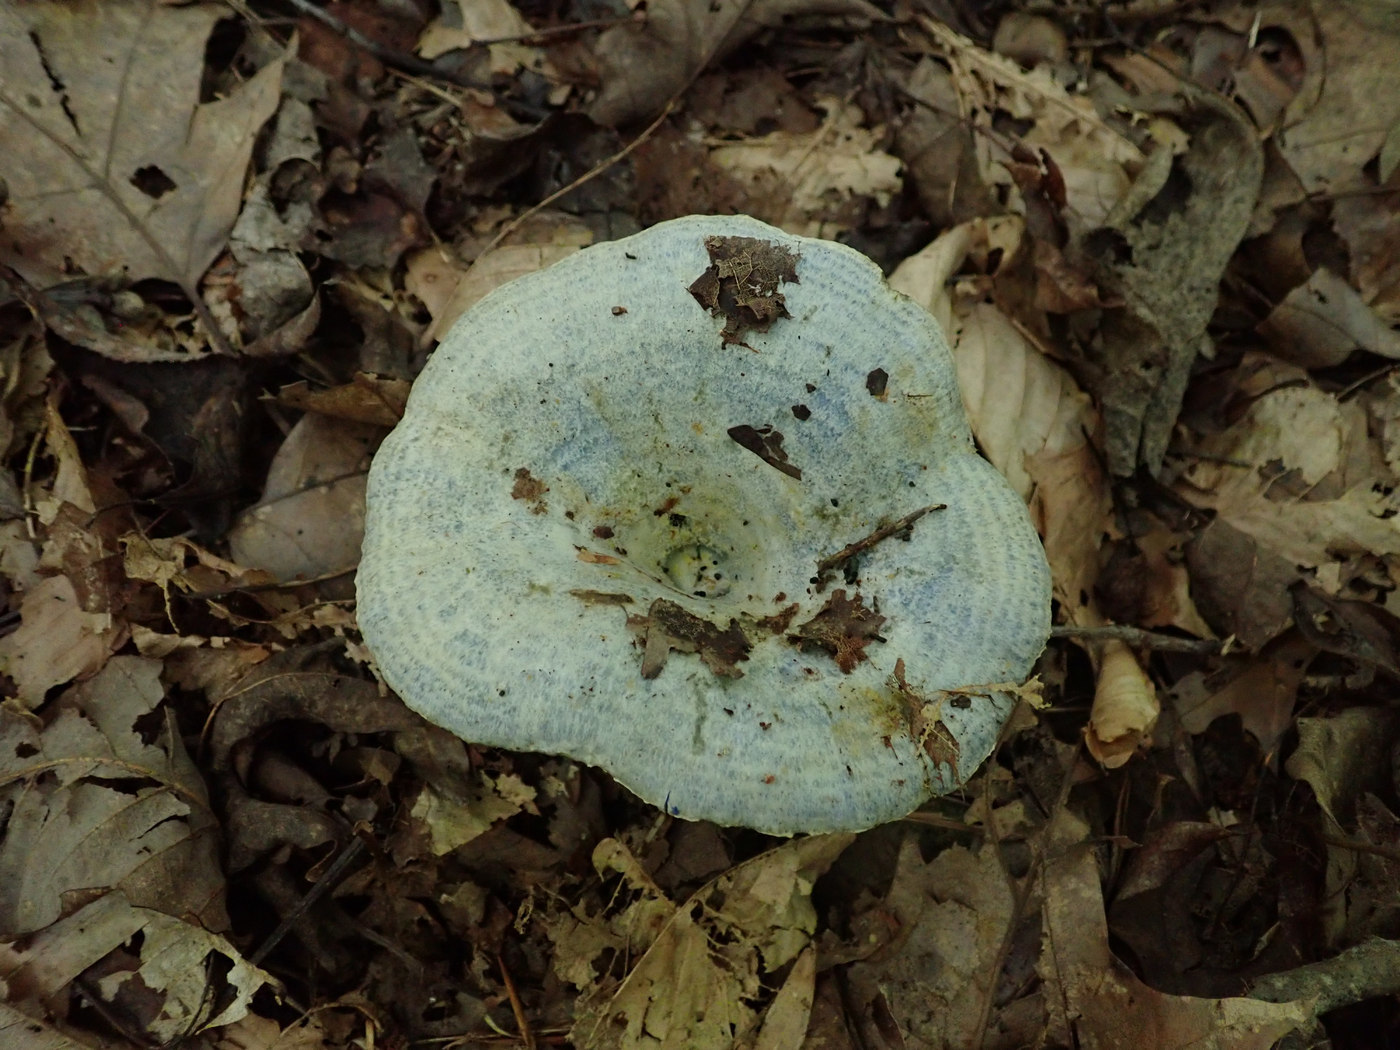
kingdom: Fungi
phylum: Basidiomycota
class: Agaricomycetes
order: Russulales
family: Russulaceae
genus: Lactarius
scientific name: Lactarius indigo
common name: Indigo milk cap
